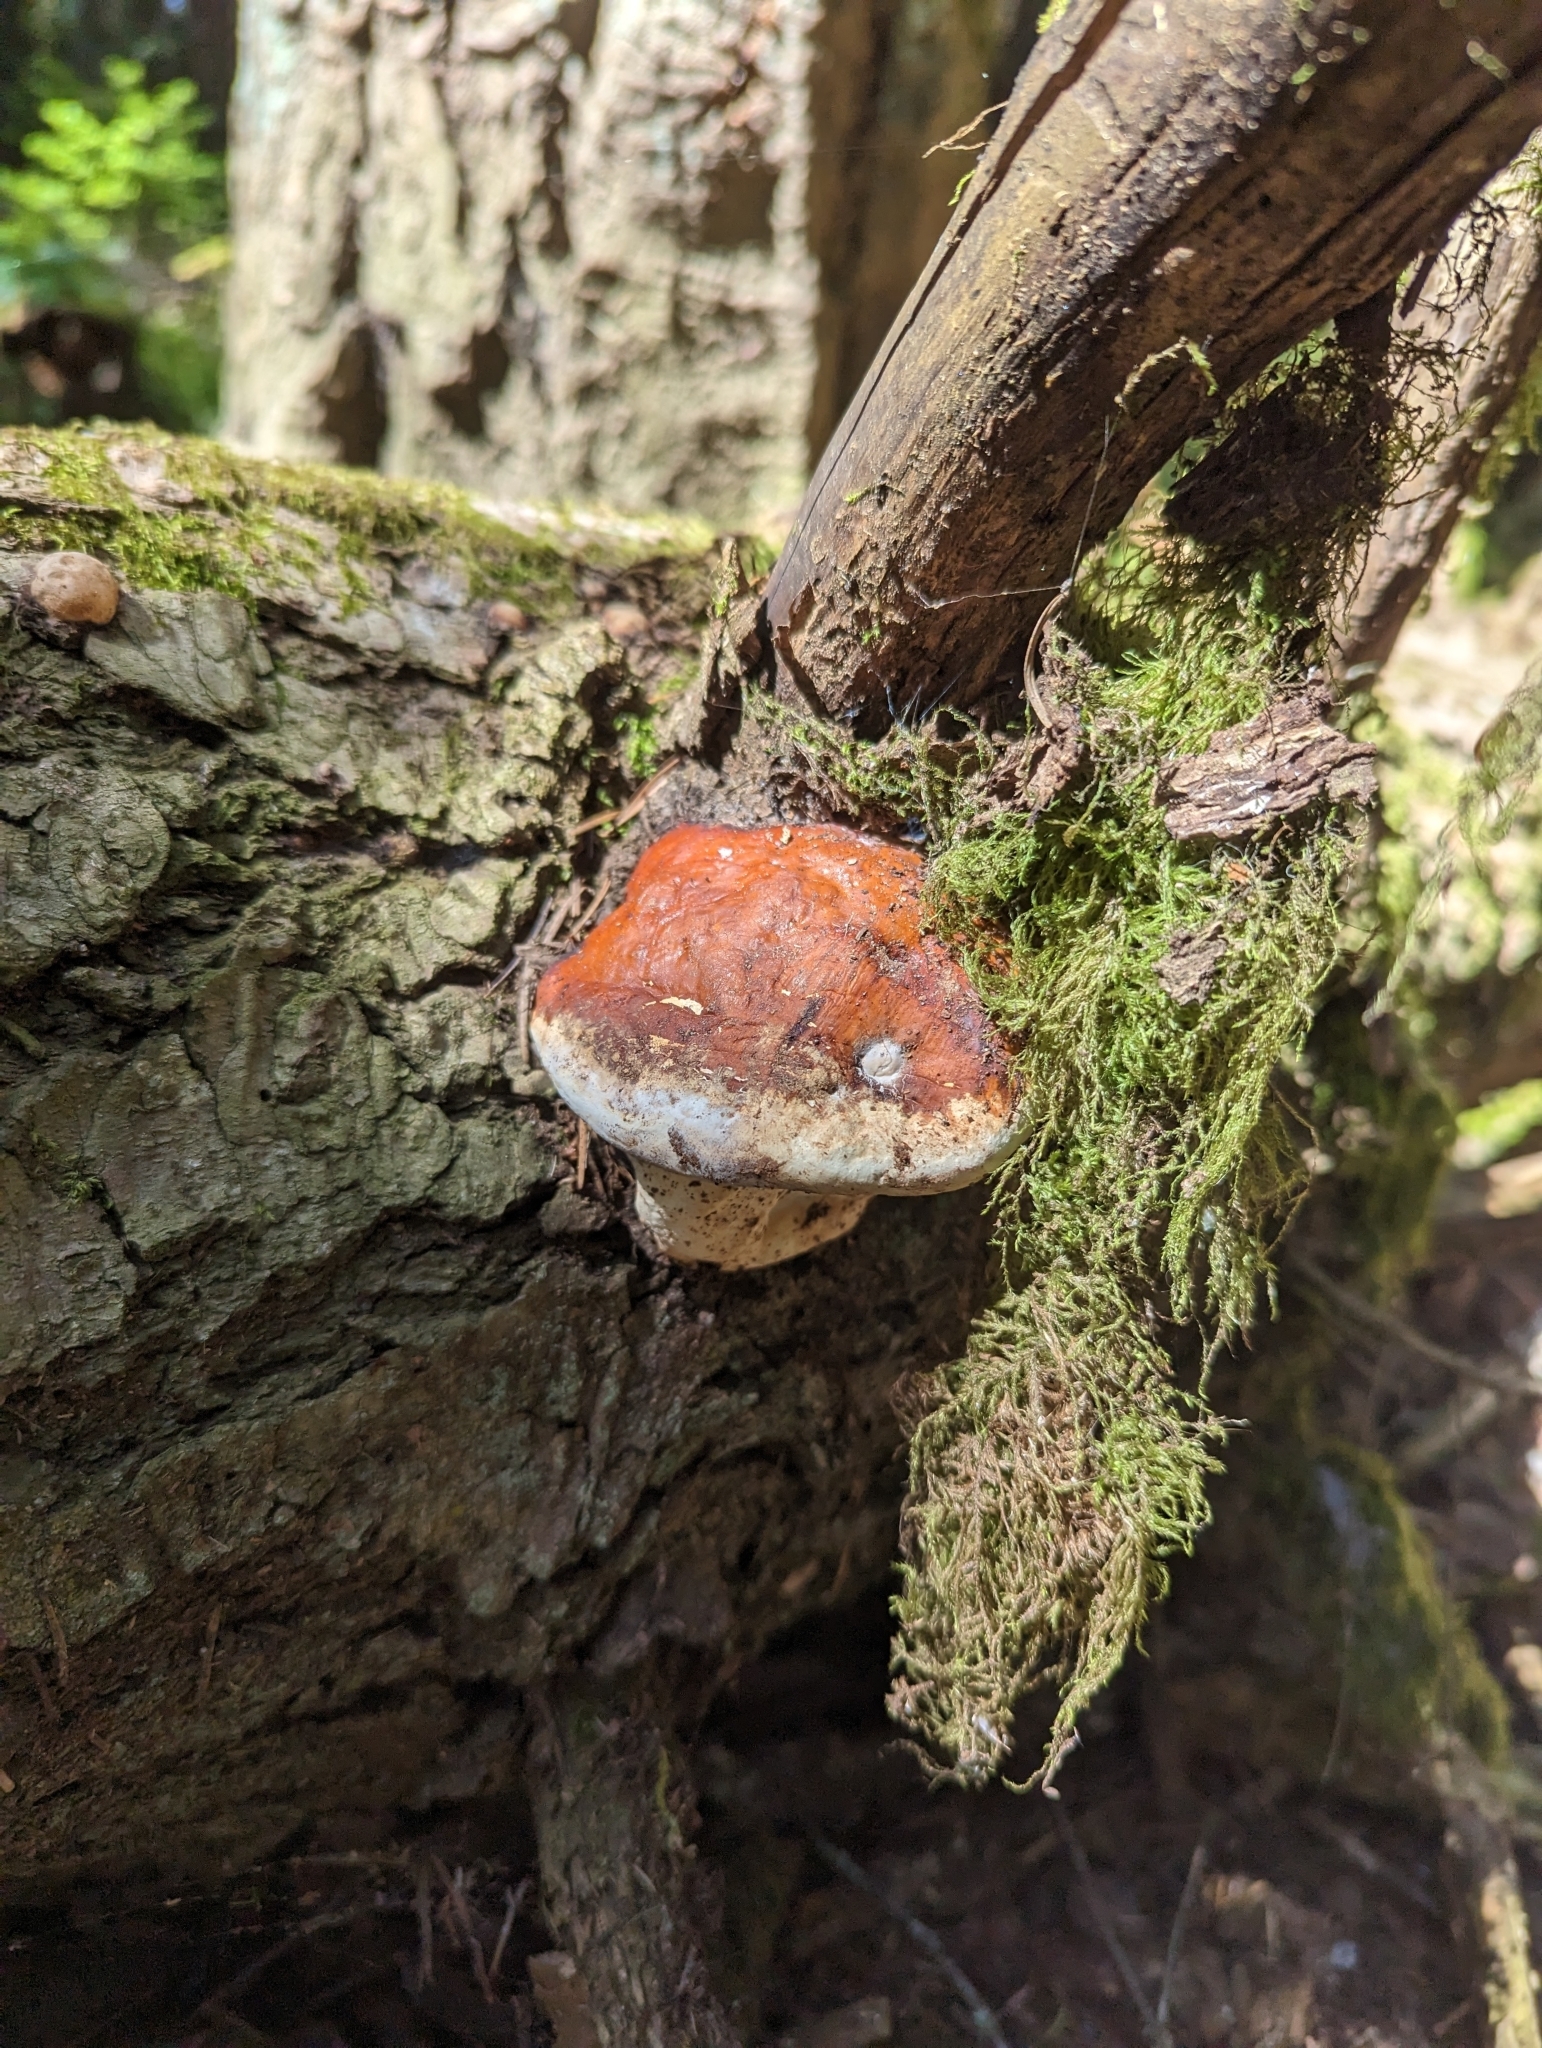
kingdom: Fungi
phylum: Basidiomycota
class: Agaricomycetes
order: Polyporales
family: Fomitopsidaceae
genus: Fomitopsis
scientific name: Fomitopsis mounceae
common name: Northern red belt
